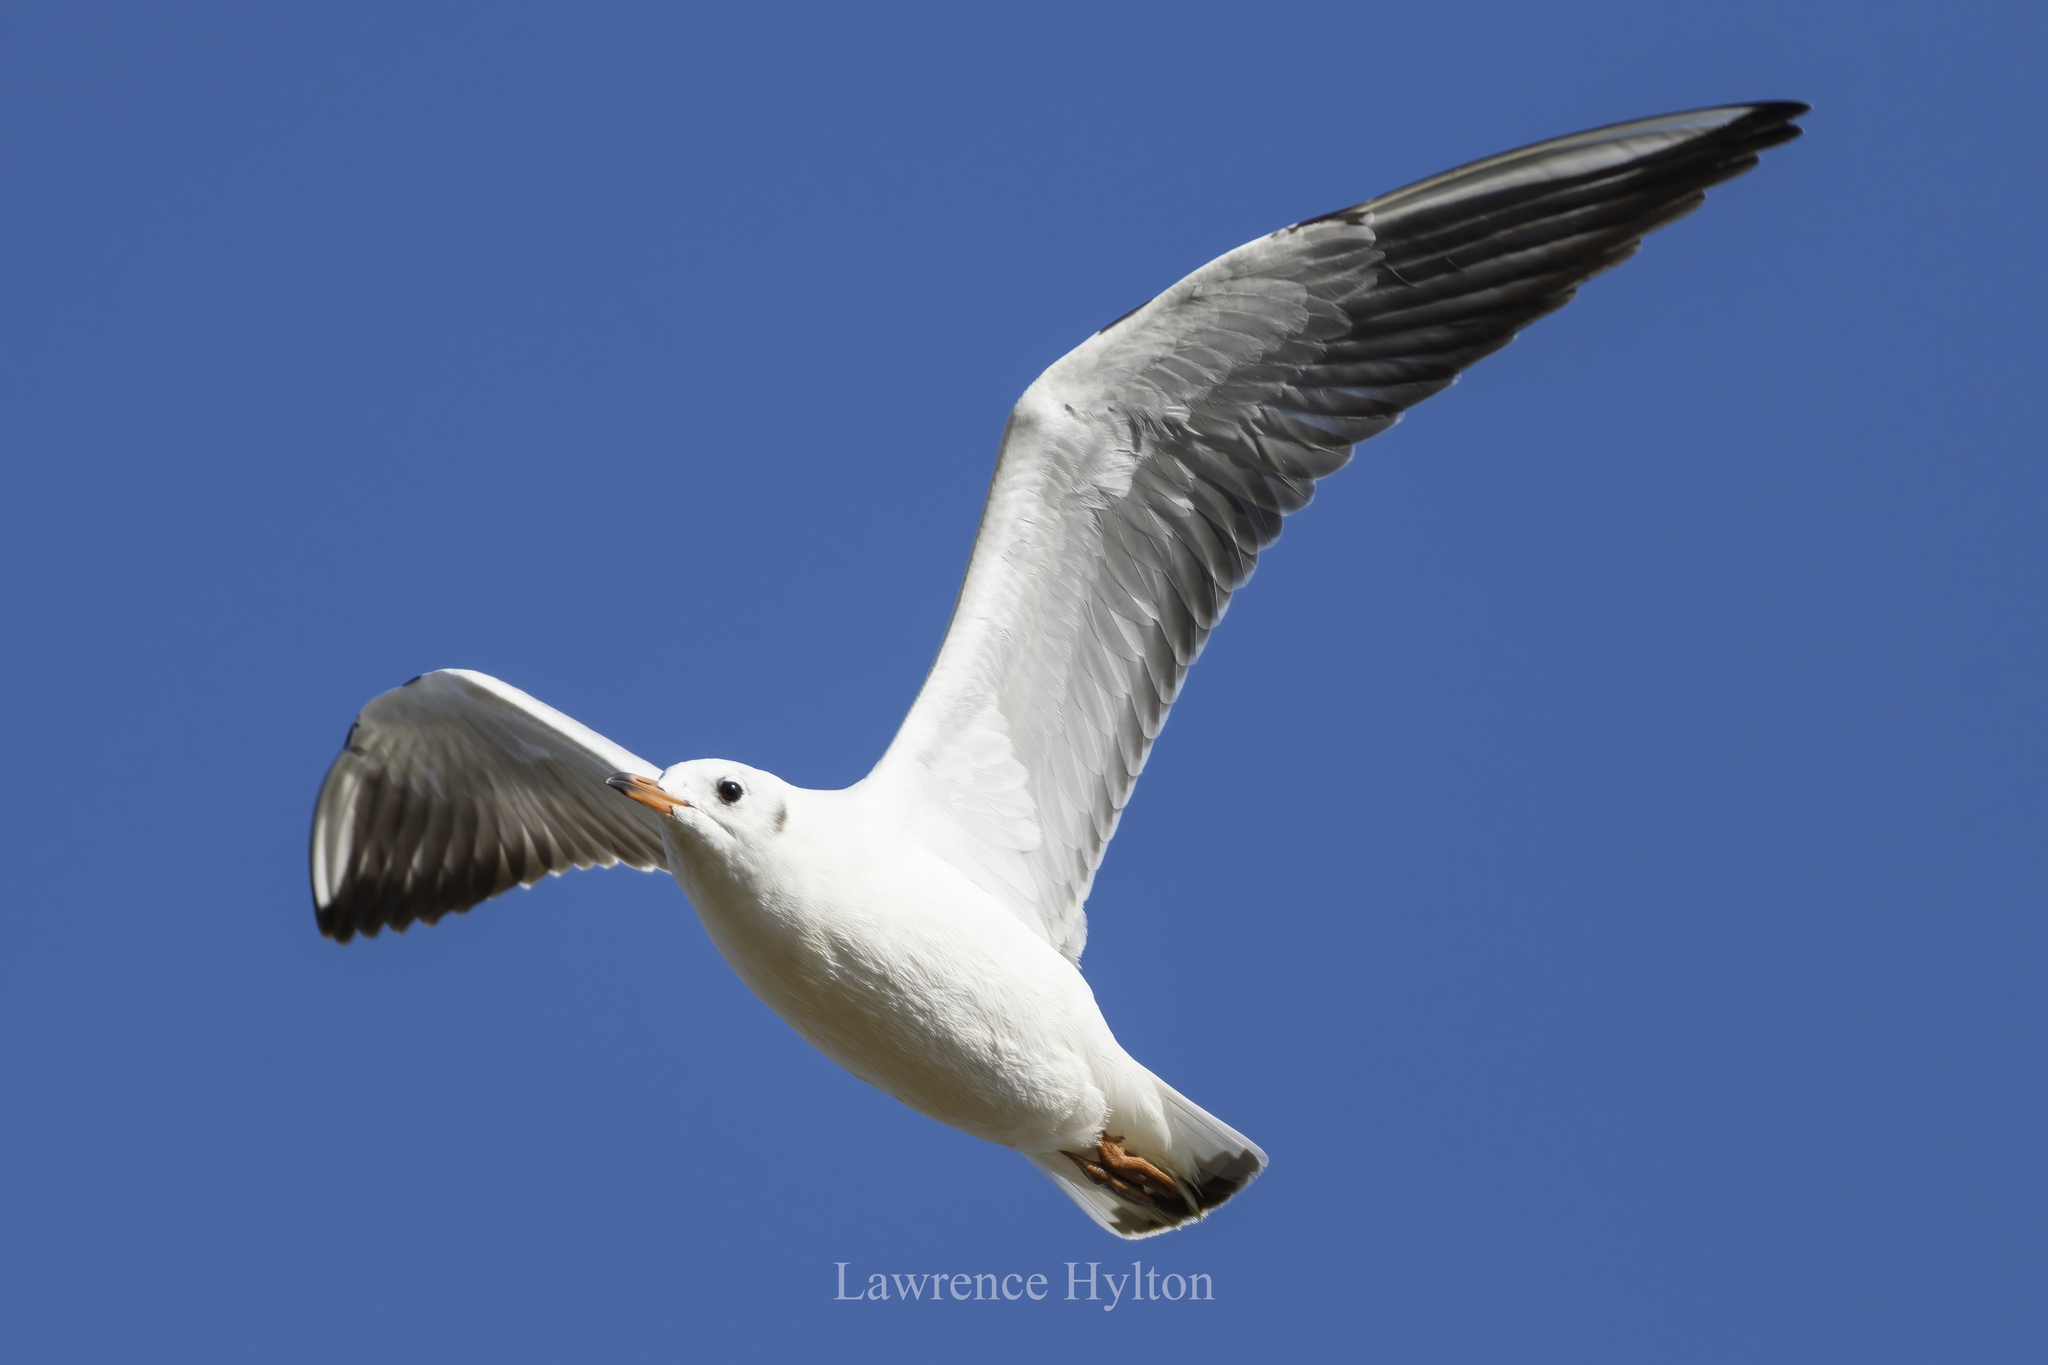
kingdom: Animalia
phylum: Chordata
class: Aves
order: Charadriiformes
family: Laridae
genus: Chroicocephalus
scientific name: Chroicocephalus ridibundus
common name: Black-headed gull
